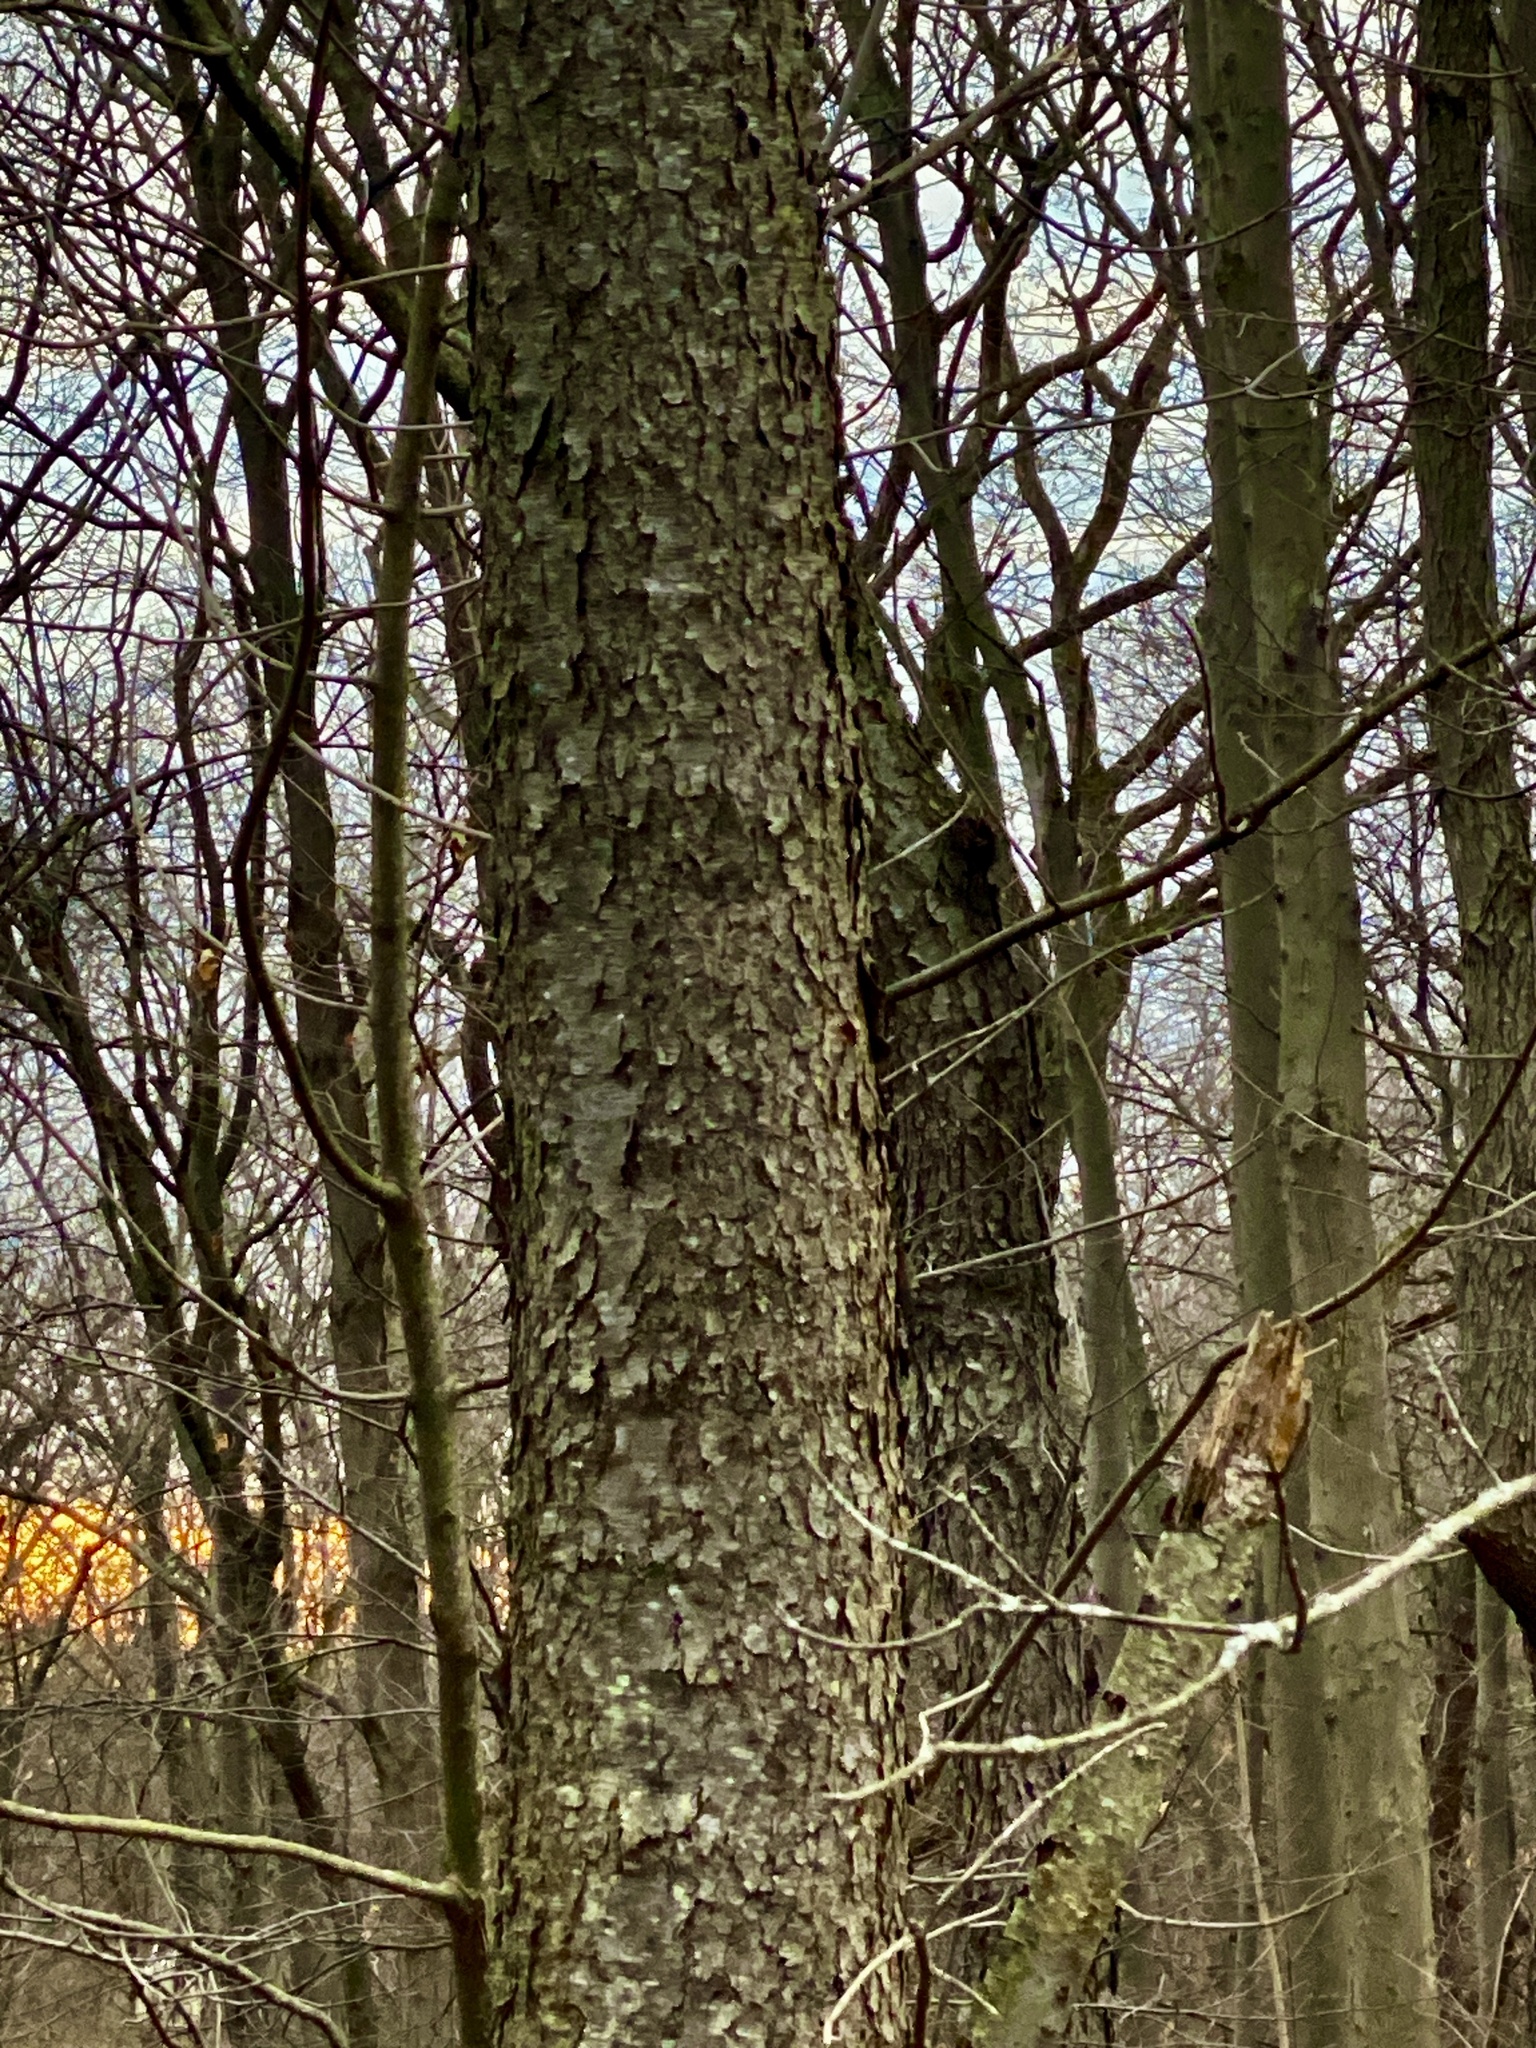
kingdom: Plantae
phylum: Tracheophyta
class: Magnoliopsida
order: Rosales
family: Rosaceae
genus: Prunus
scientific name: Prunus serotina
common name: Black cherry
